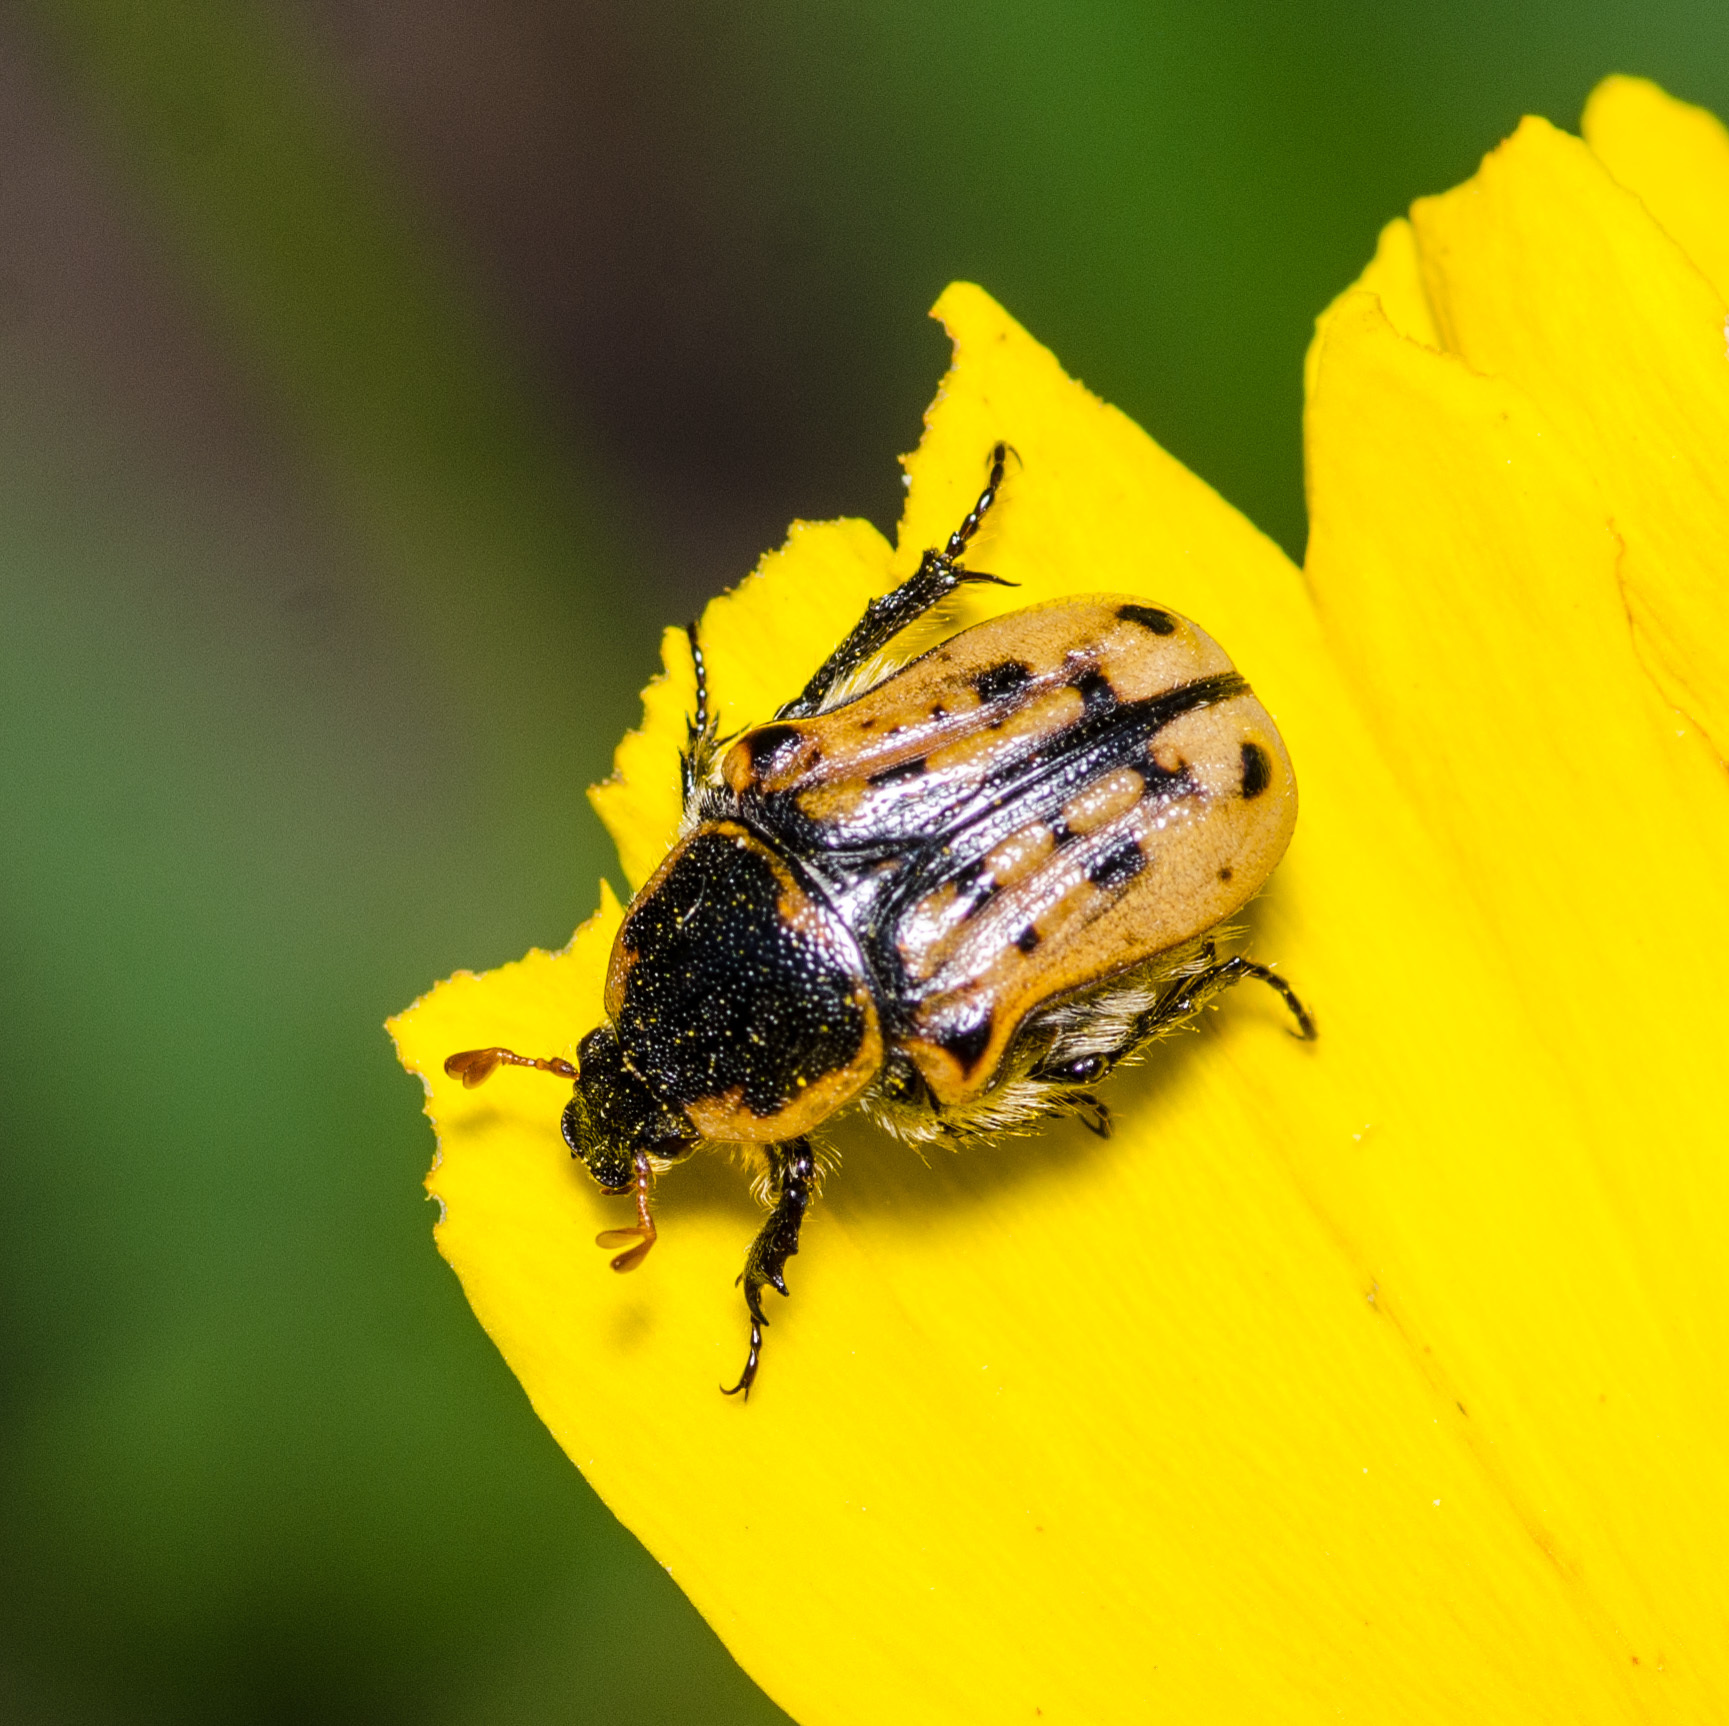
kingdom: Animalia
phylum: Arthropoda
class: Insecta
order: Coleoptera
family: Scarabaeidae
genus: Euphoria
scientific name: Euphoria kernii
